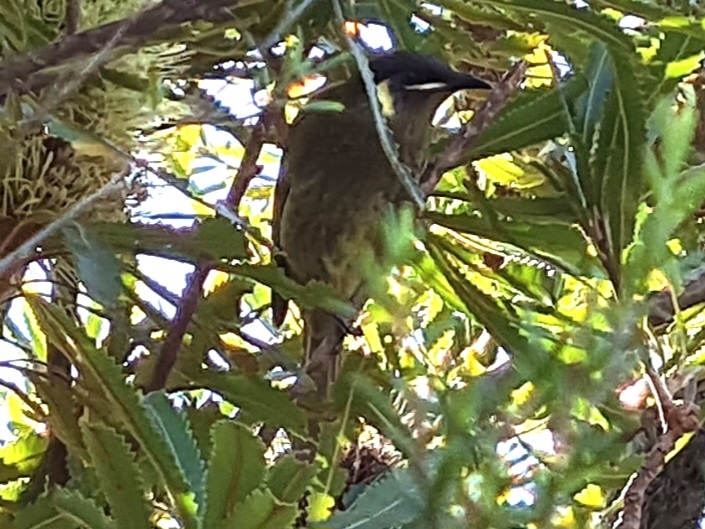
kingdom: Animalia
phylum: Chordata
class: Aves
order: Passeriformes
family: Meliphagidae
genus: Meliphaga
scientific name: Meliphaga lewinii
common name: Lewin's honeyeater
